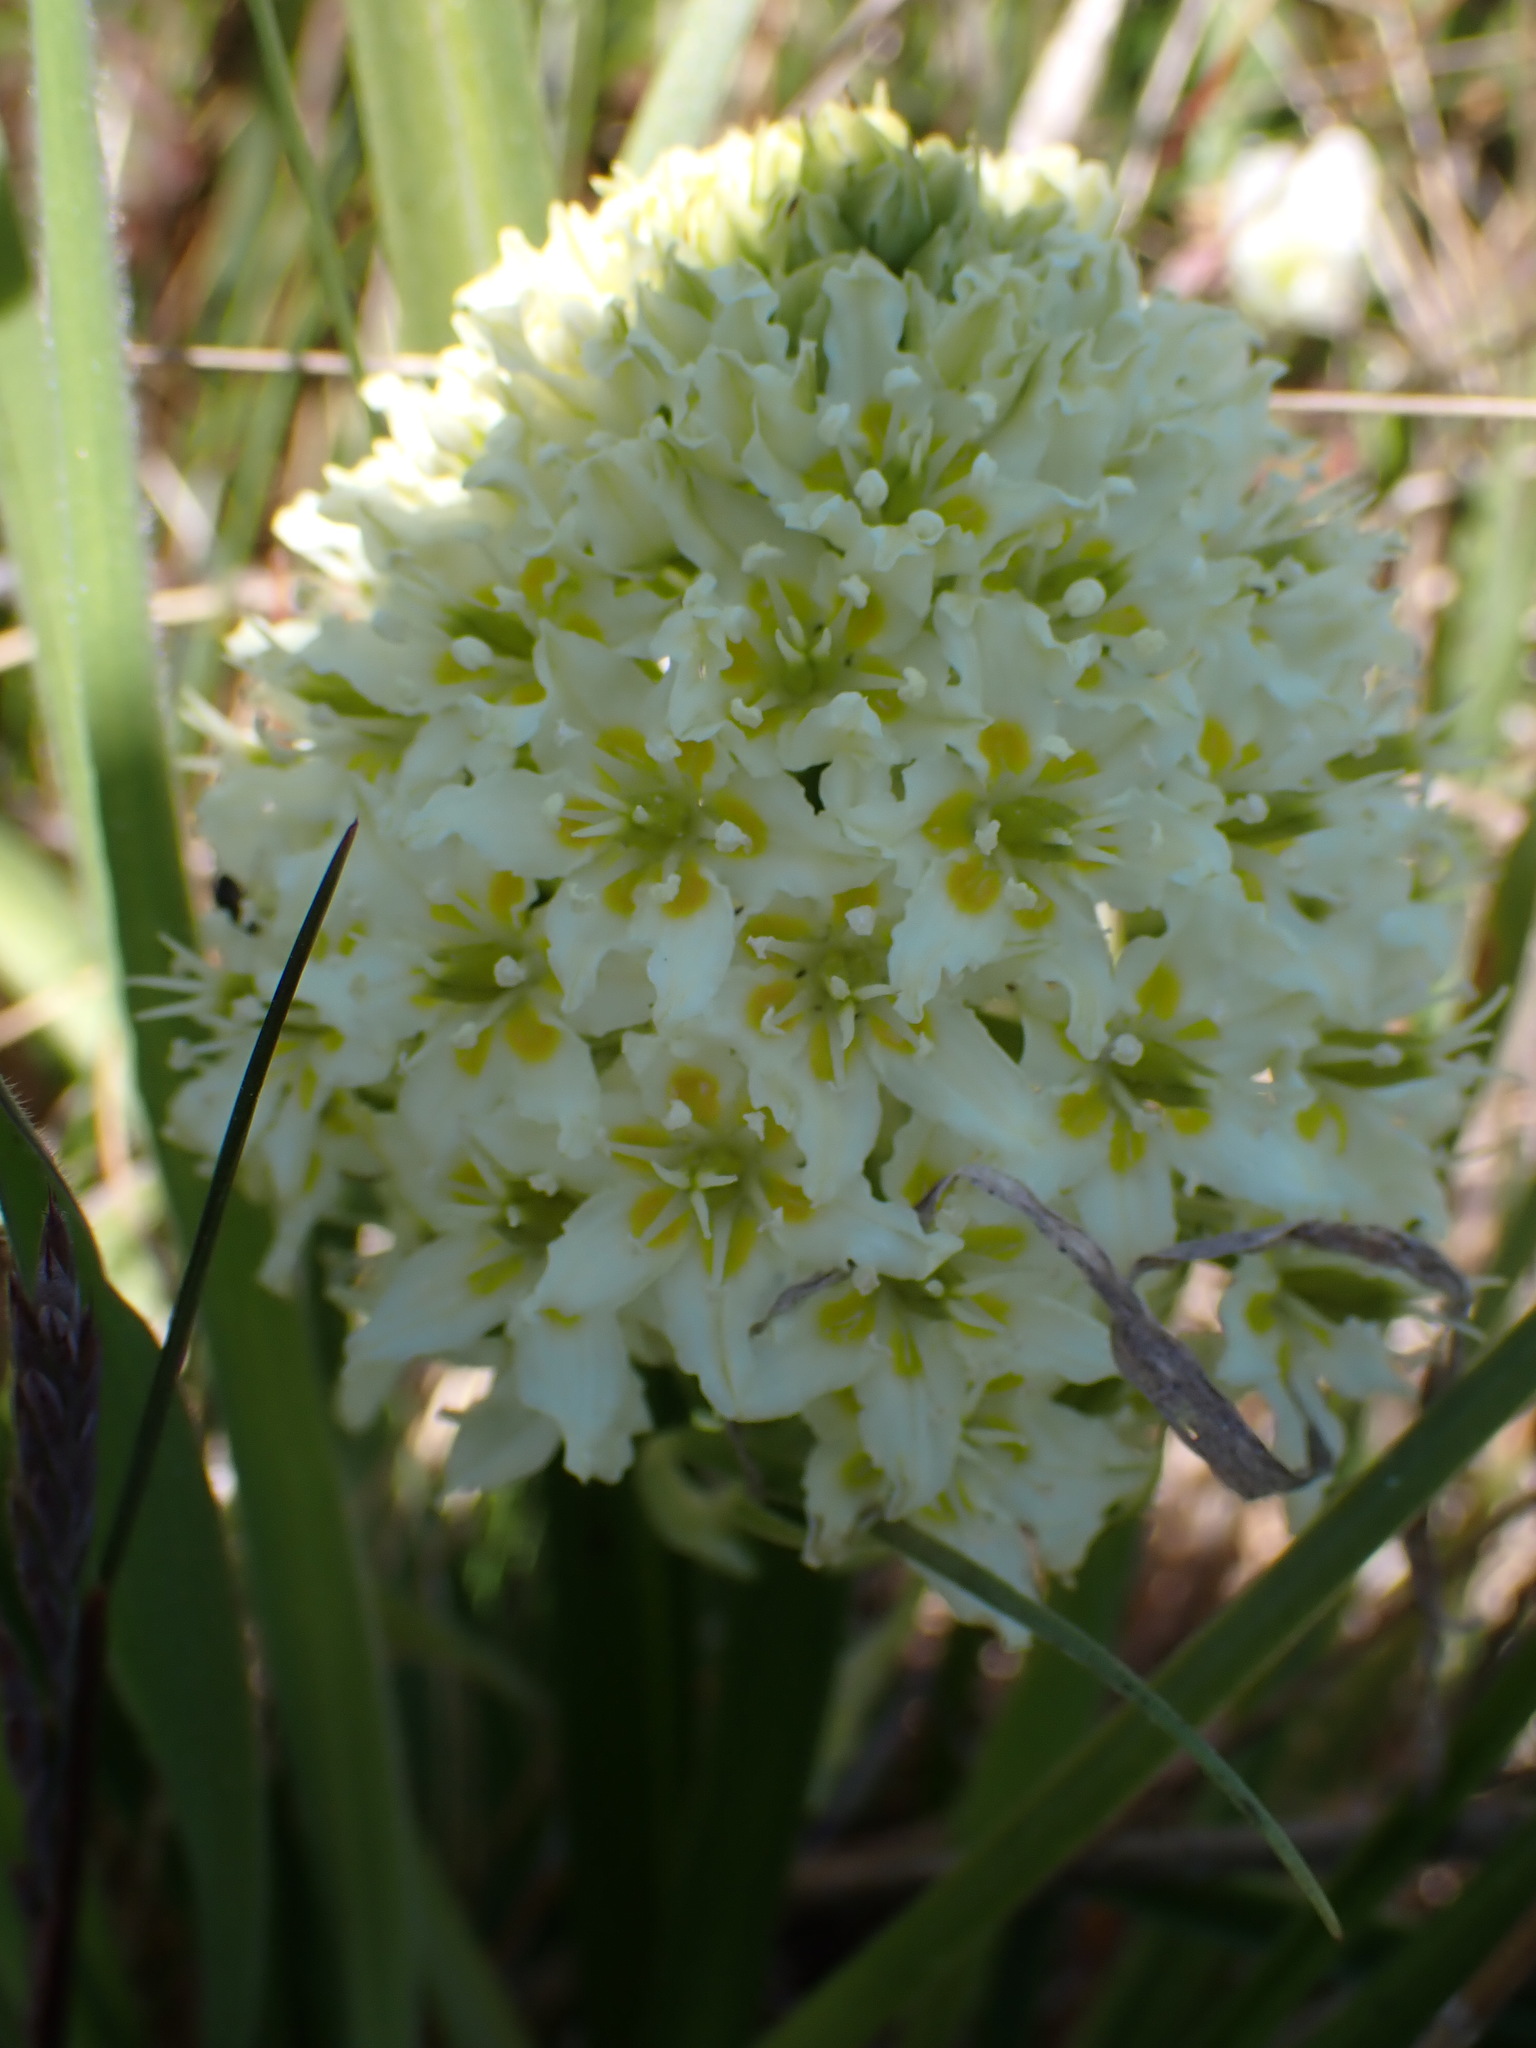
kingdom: Plantae
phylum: Tracheophyta
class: Liliopsida
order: Liliales
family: Melanthiaceae
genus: Toxicoscordion
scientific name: Toxicoscordion venenosum
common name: Meadow death camas
